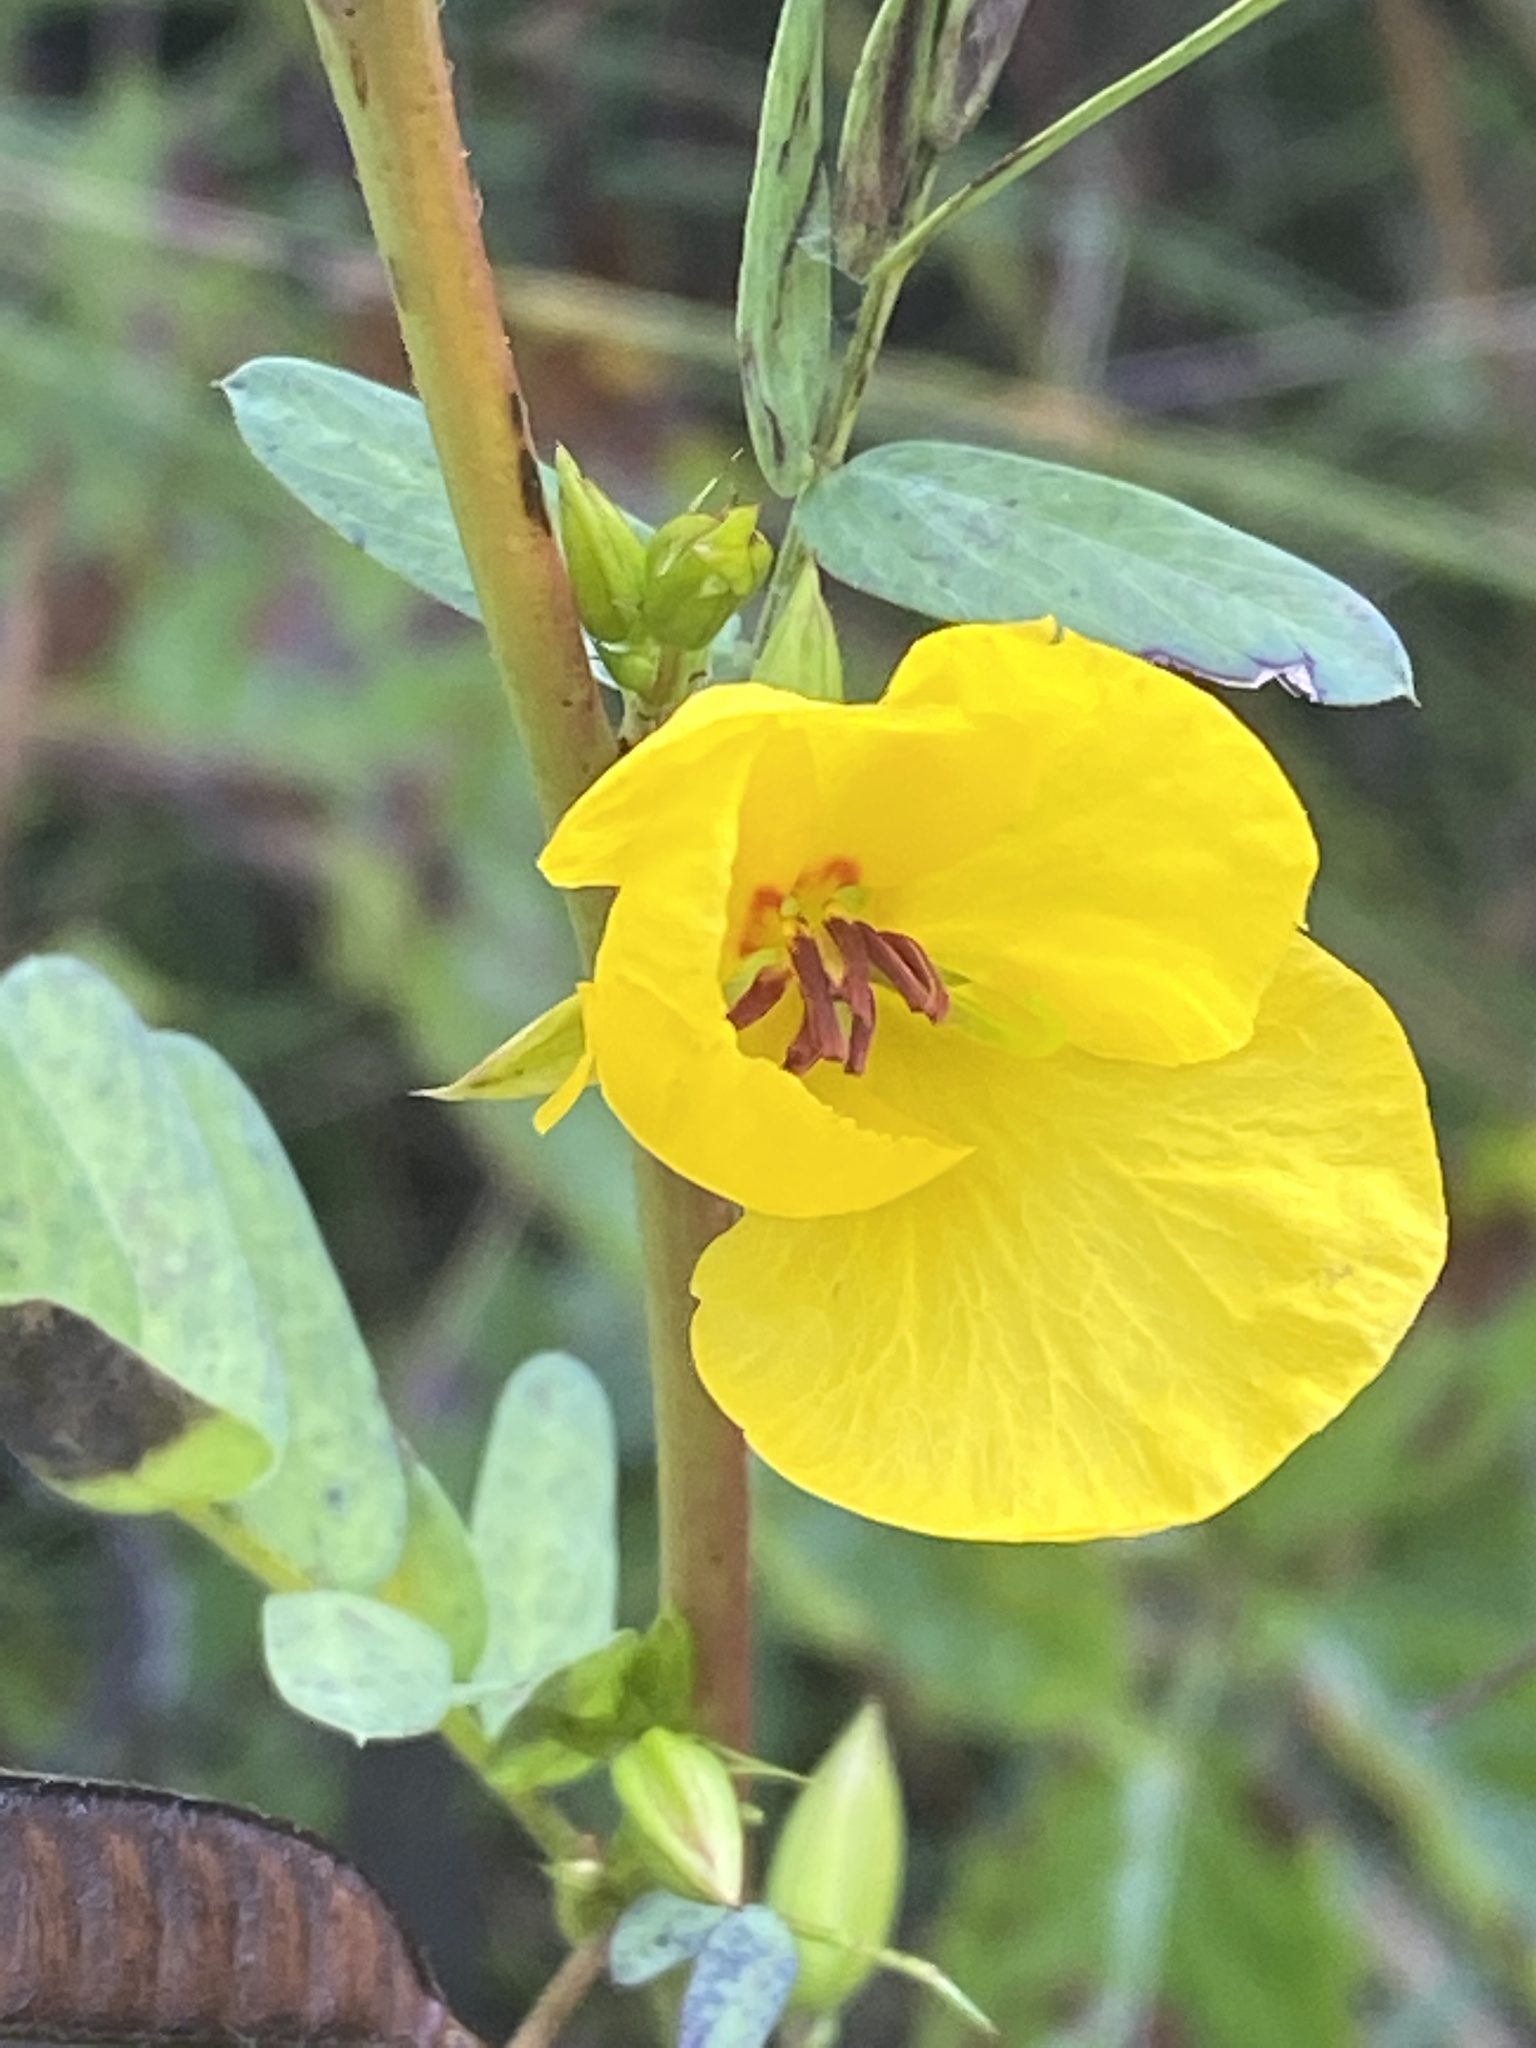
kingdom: Plantae
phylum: Tracheophyta
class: Magnoliopsida
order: Fabales
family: Fabaceae
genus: Chamaecrista
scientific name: Chamaecrista fasciculata
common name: Golden cassia
